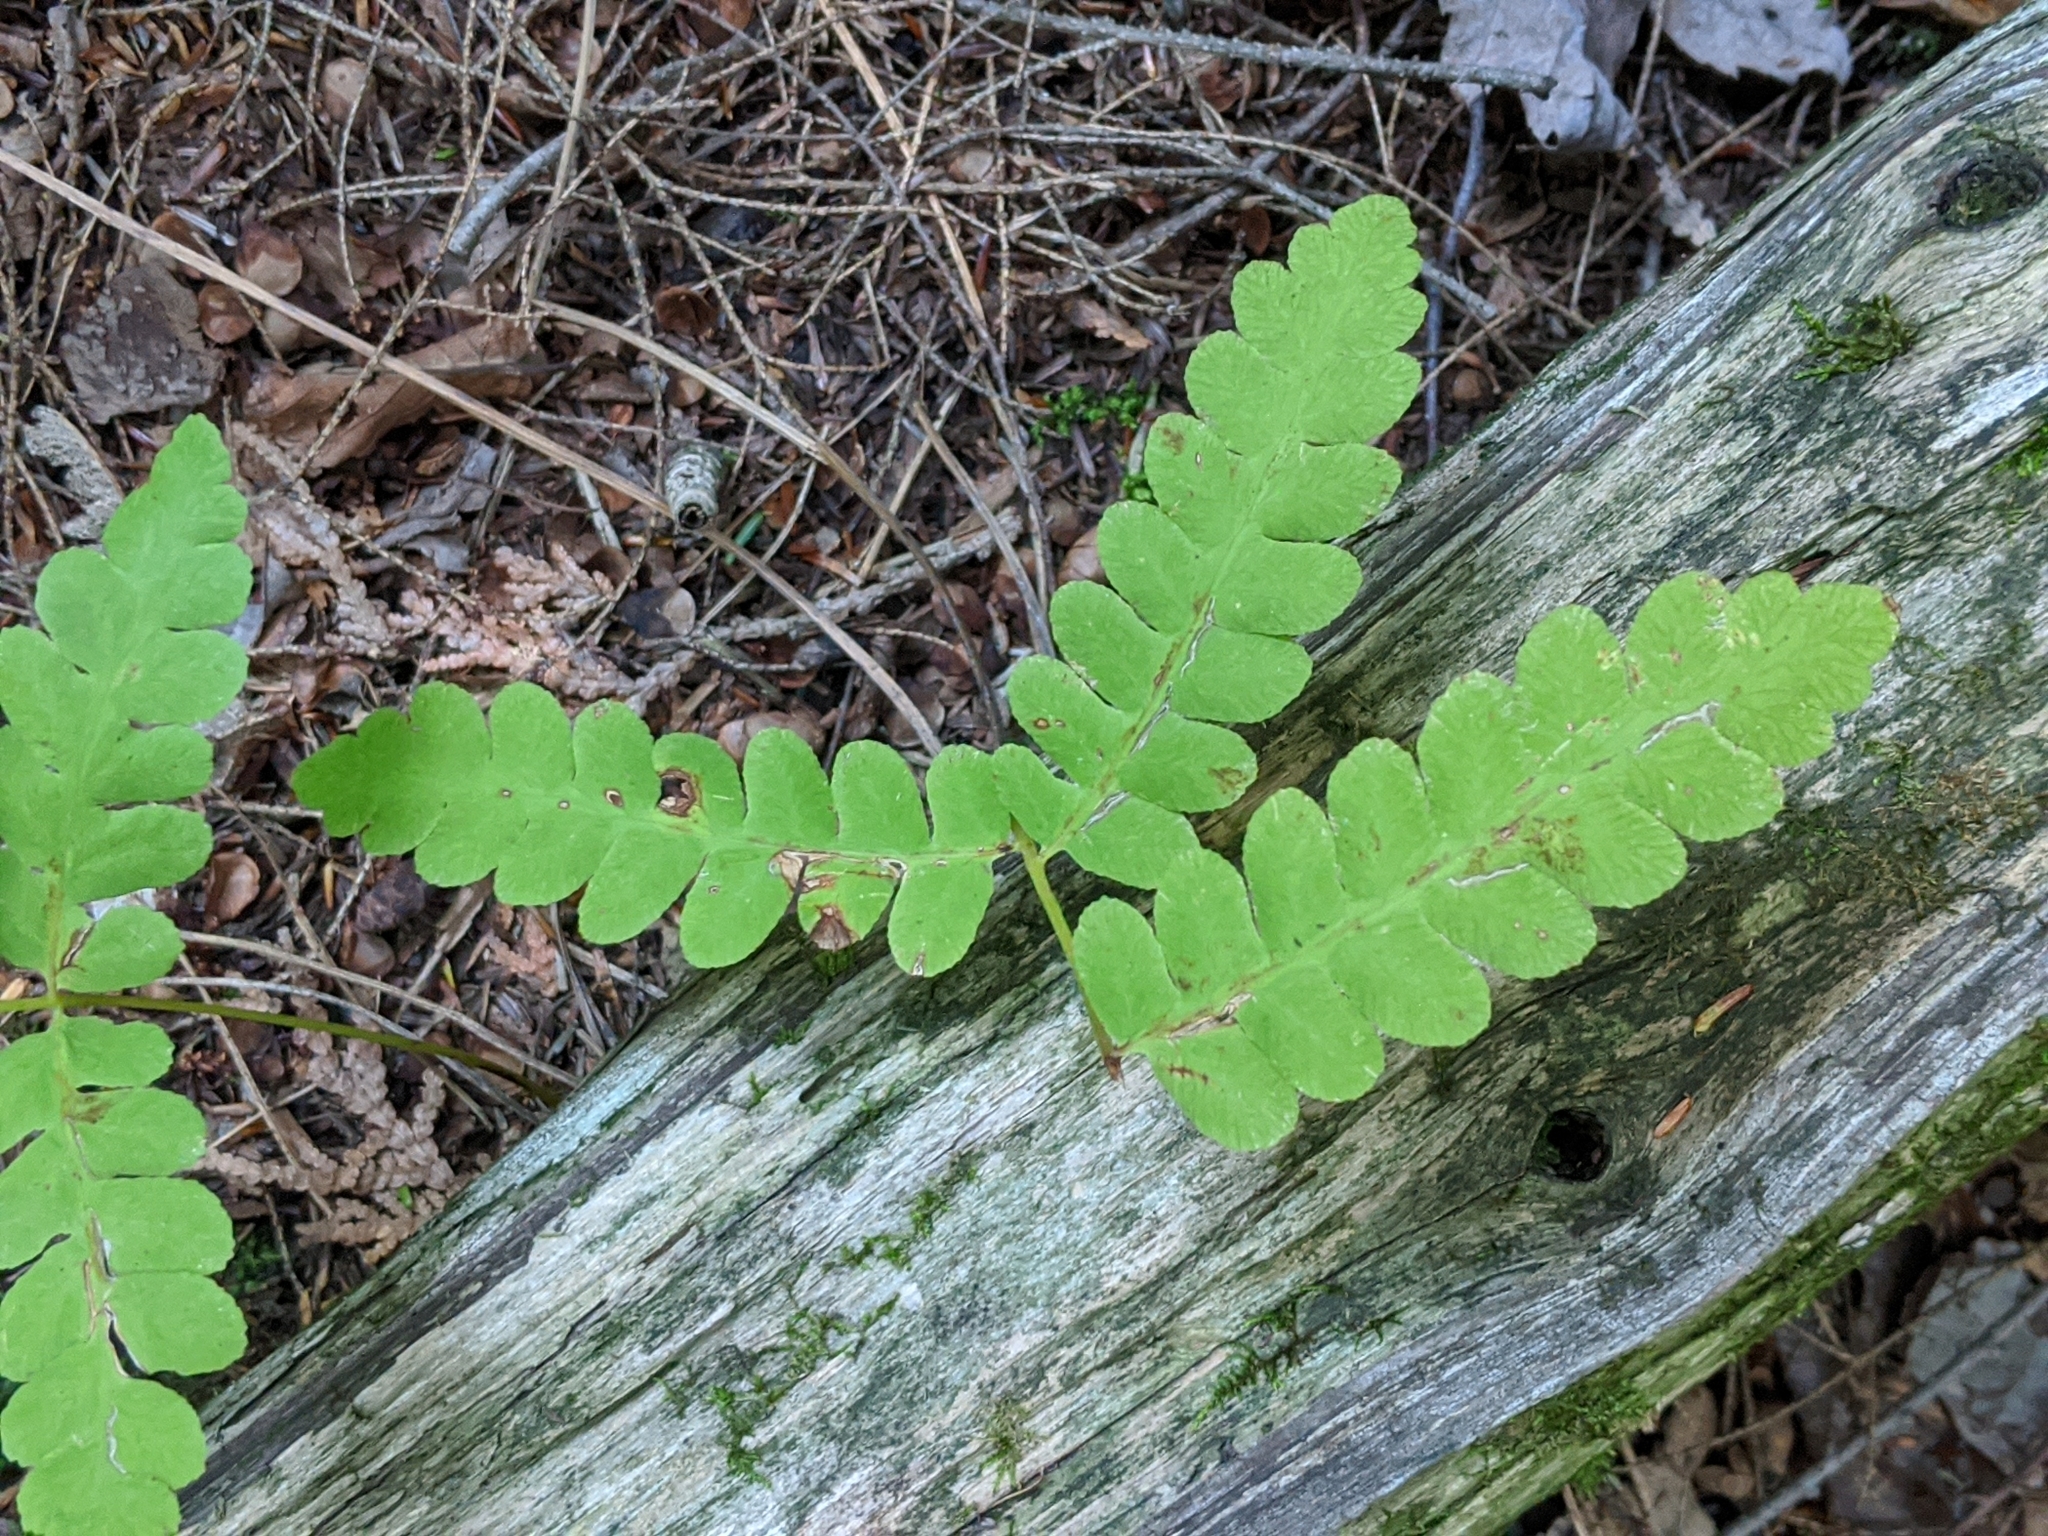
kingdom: Plantae
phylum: Tracheophyta
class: Polypodiopsida
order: Osmundales
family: Osmundaceae
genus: Claytosmunda
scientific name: Claytosmunda claytoniana
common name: Clayton's fern
